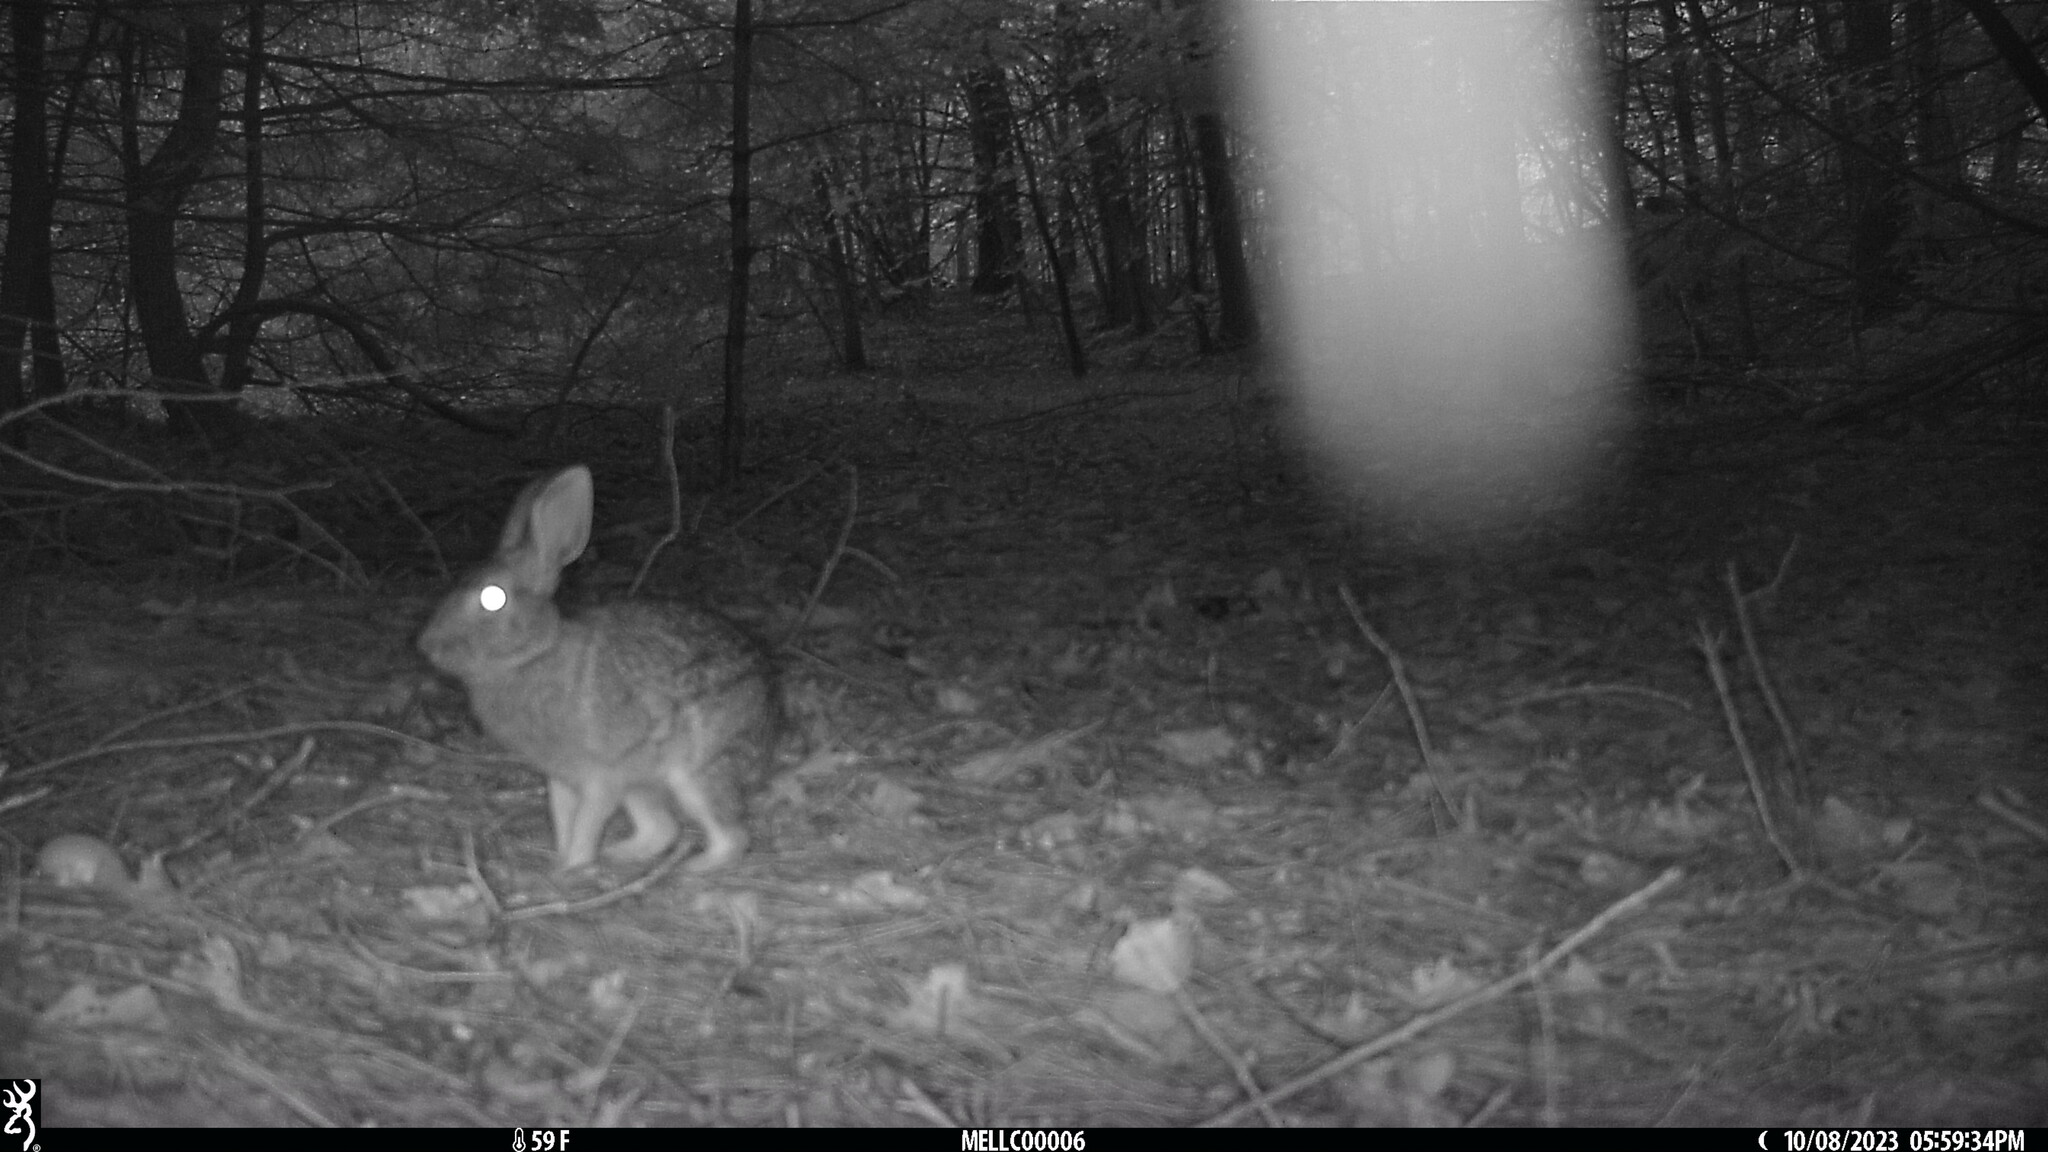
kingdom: Animalia
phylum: Chordata
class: Mammalia
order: Lagomorpha
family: Leporidae
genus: Sylvilagus
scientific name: Sylvilagus floridanus
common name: Eastern cottontail
